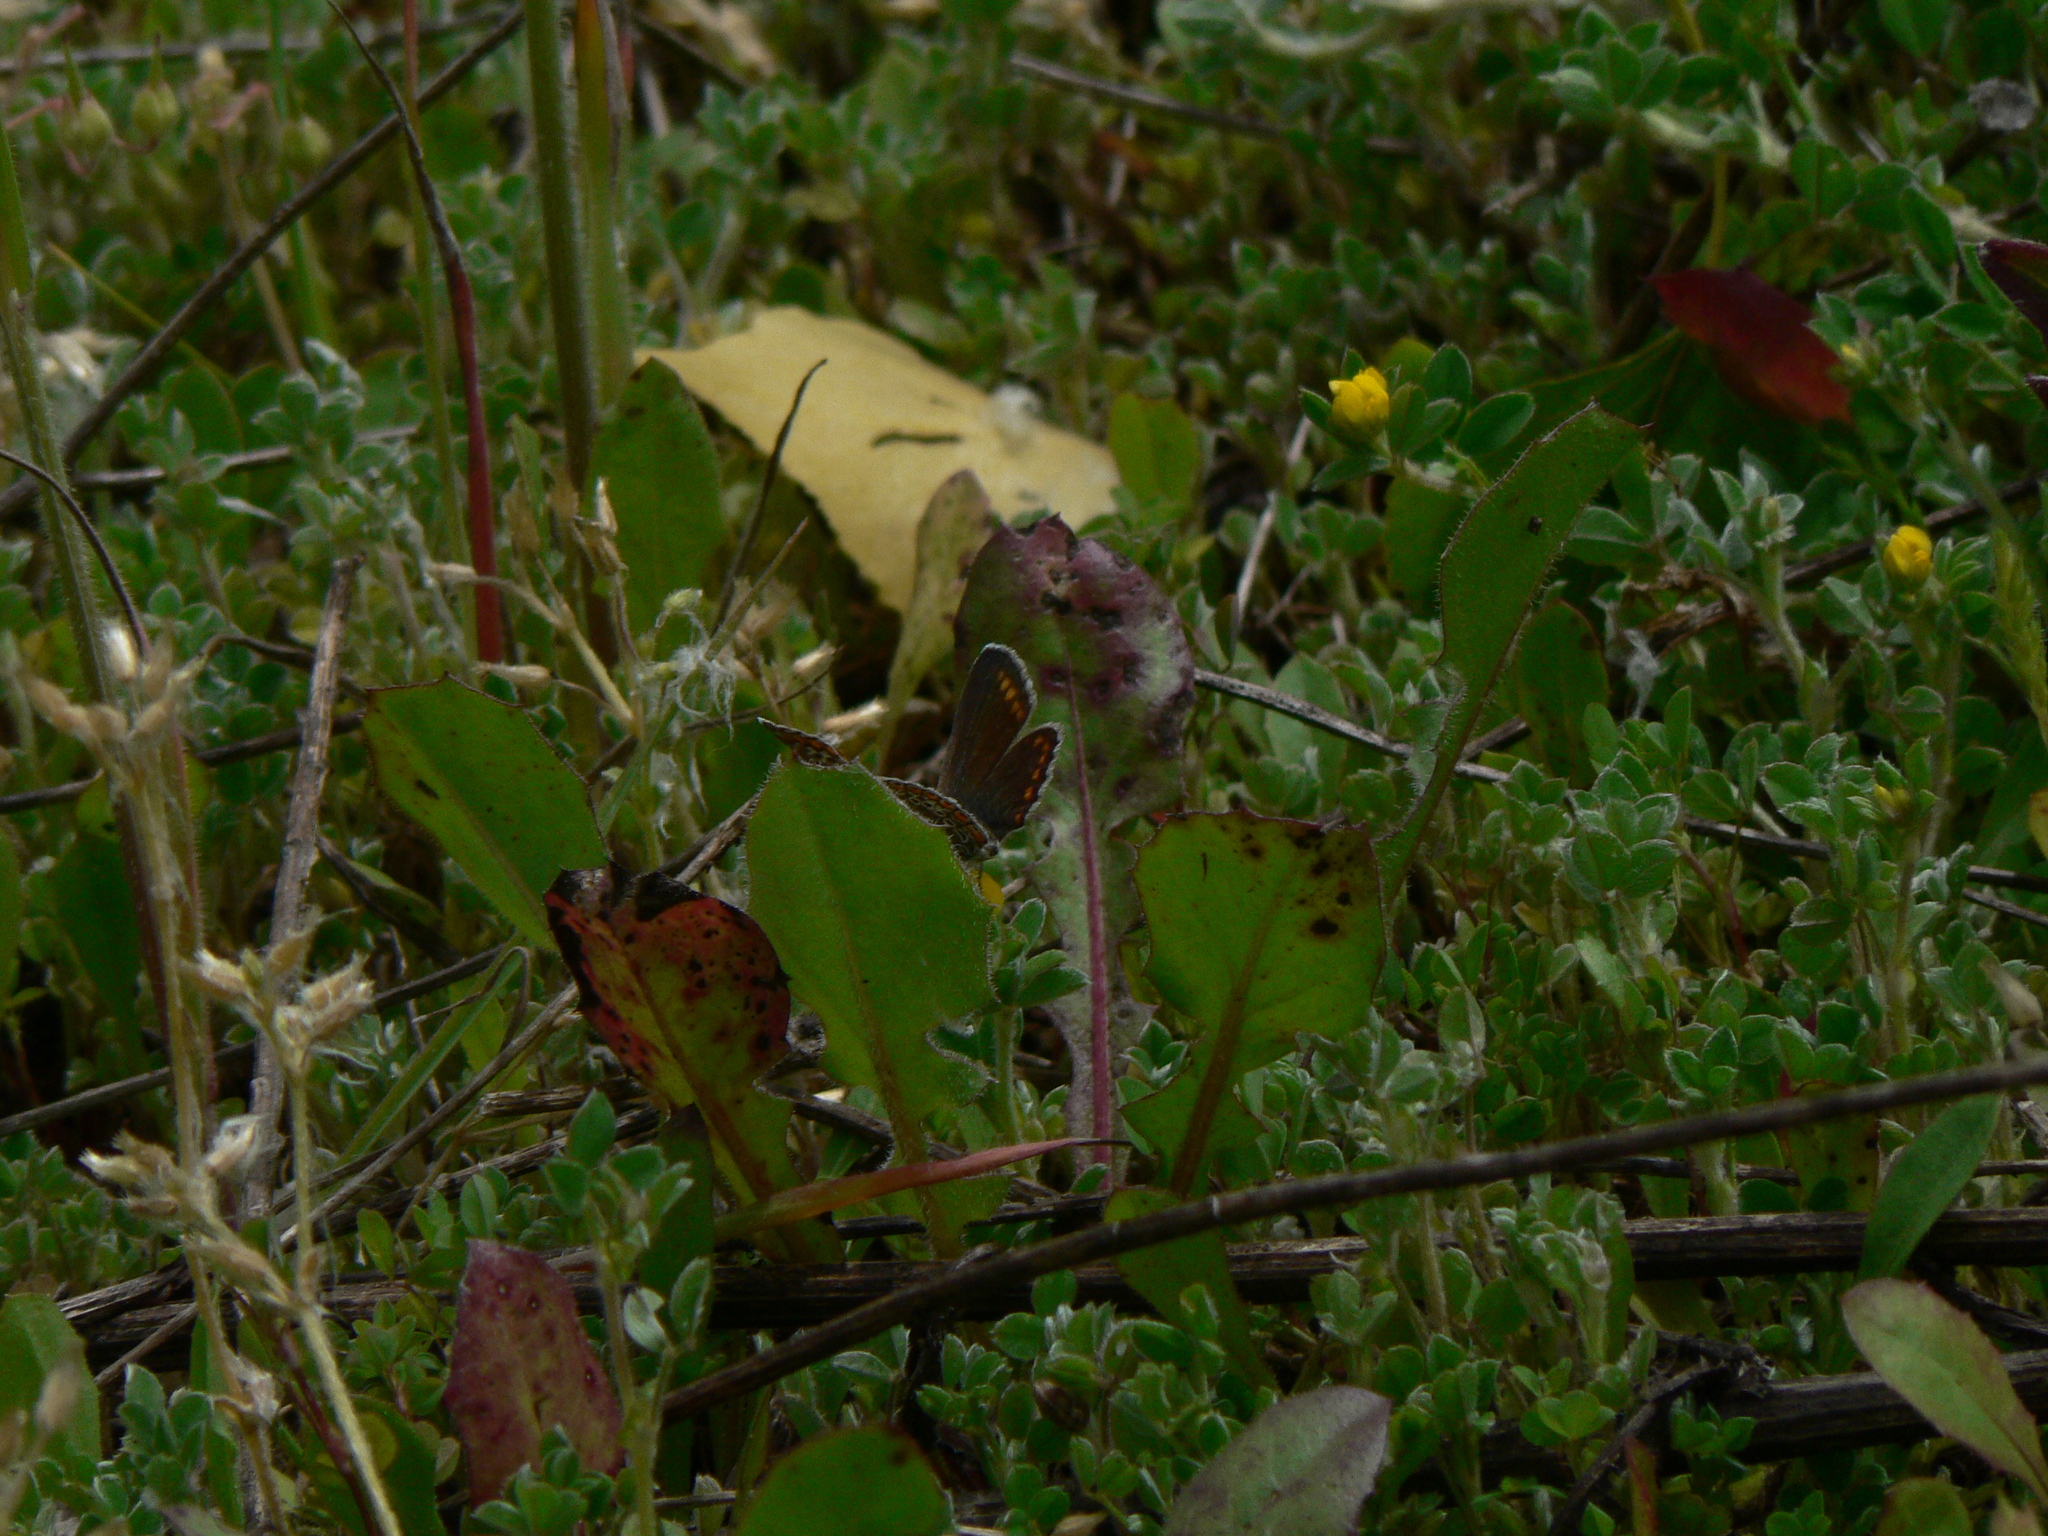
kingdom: Animalia
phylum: Arthropoda
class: Insecta
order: Lepidoptera
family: Lycaenidae
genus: Polyommatus
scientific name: Polyommatus icarus
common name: Common blue
